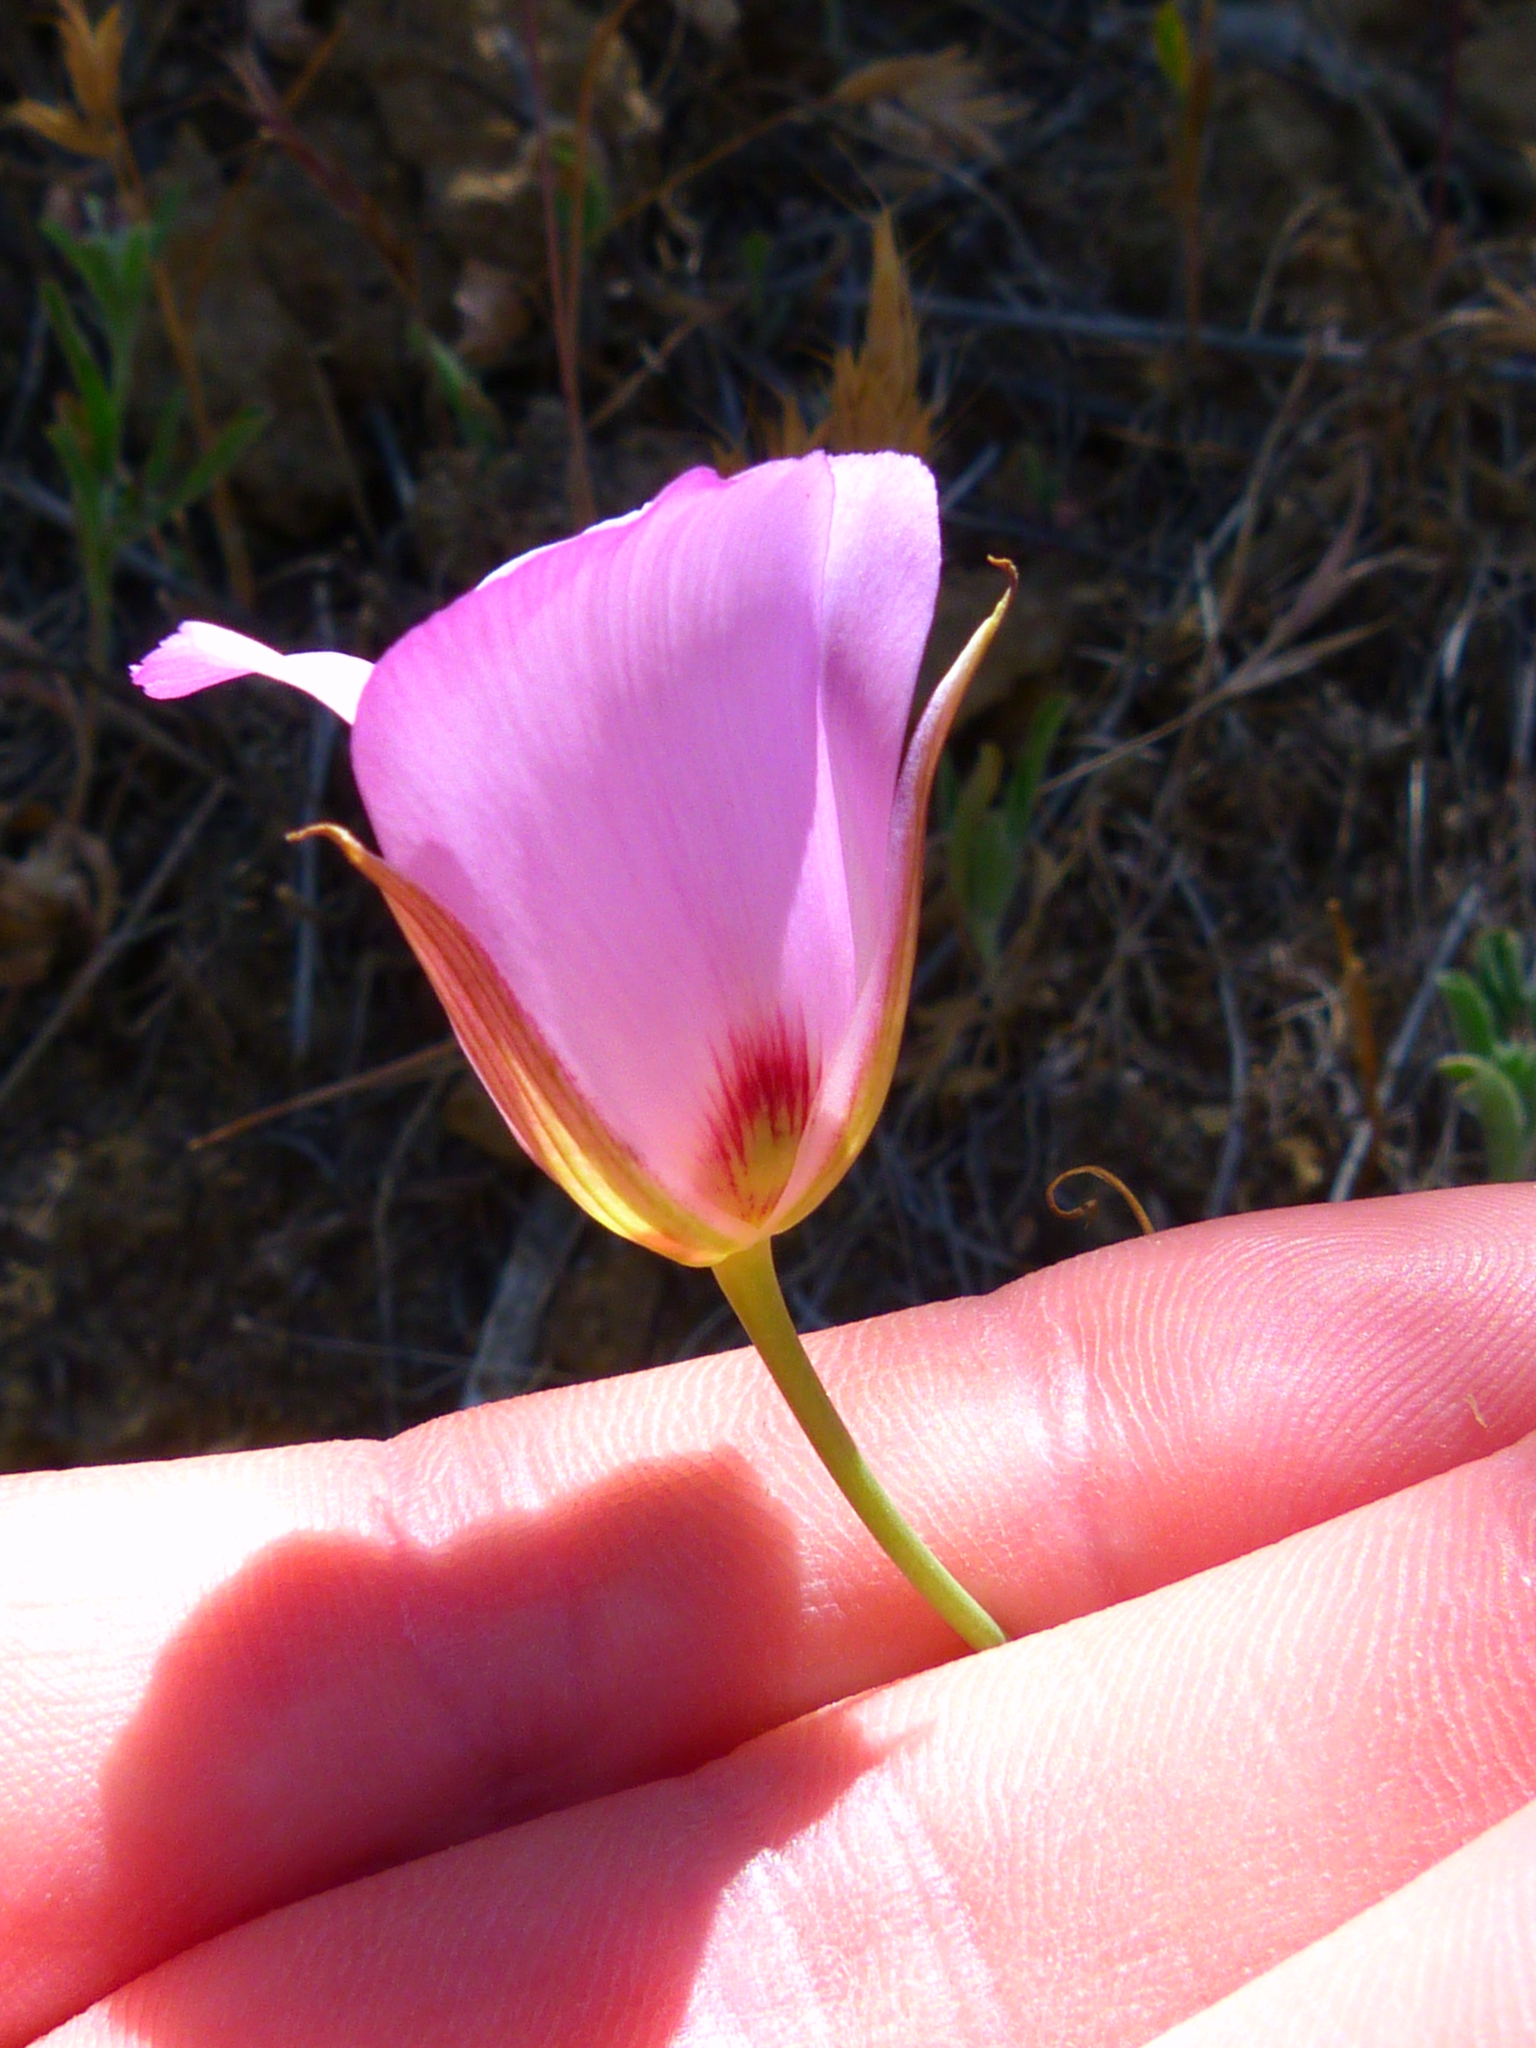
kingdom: Plantae
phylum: Tracheophyta
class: Liliopsida
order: Liliales
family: Liliaceae
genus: Calochortus
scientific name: Calochortus catalinae
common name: Catalina mariposa-lily
